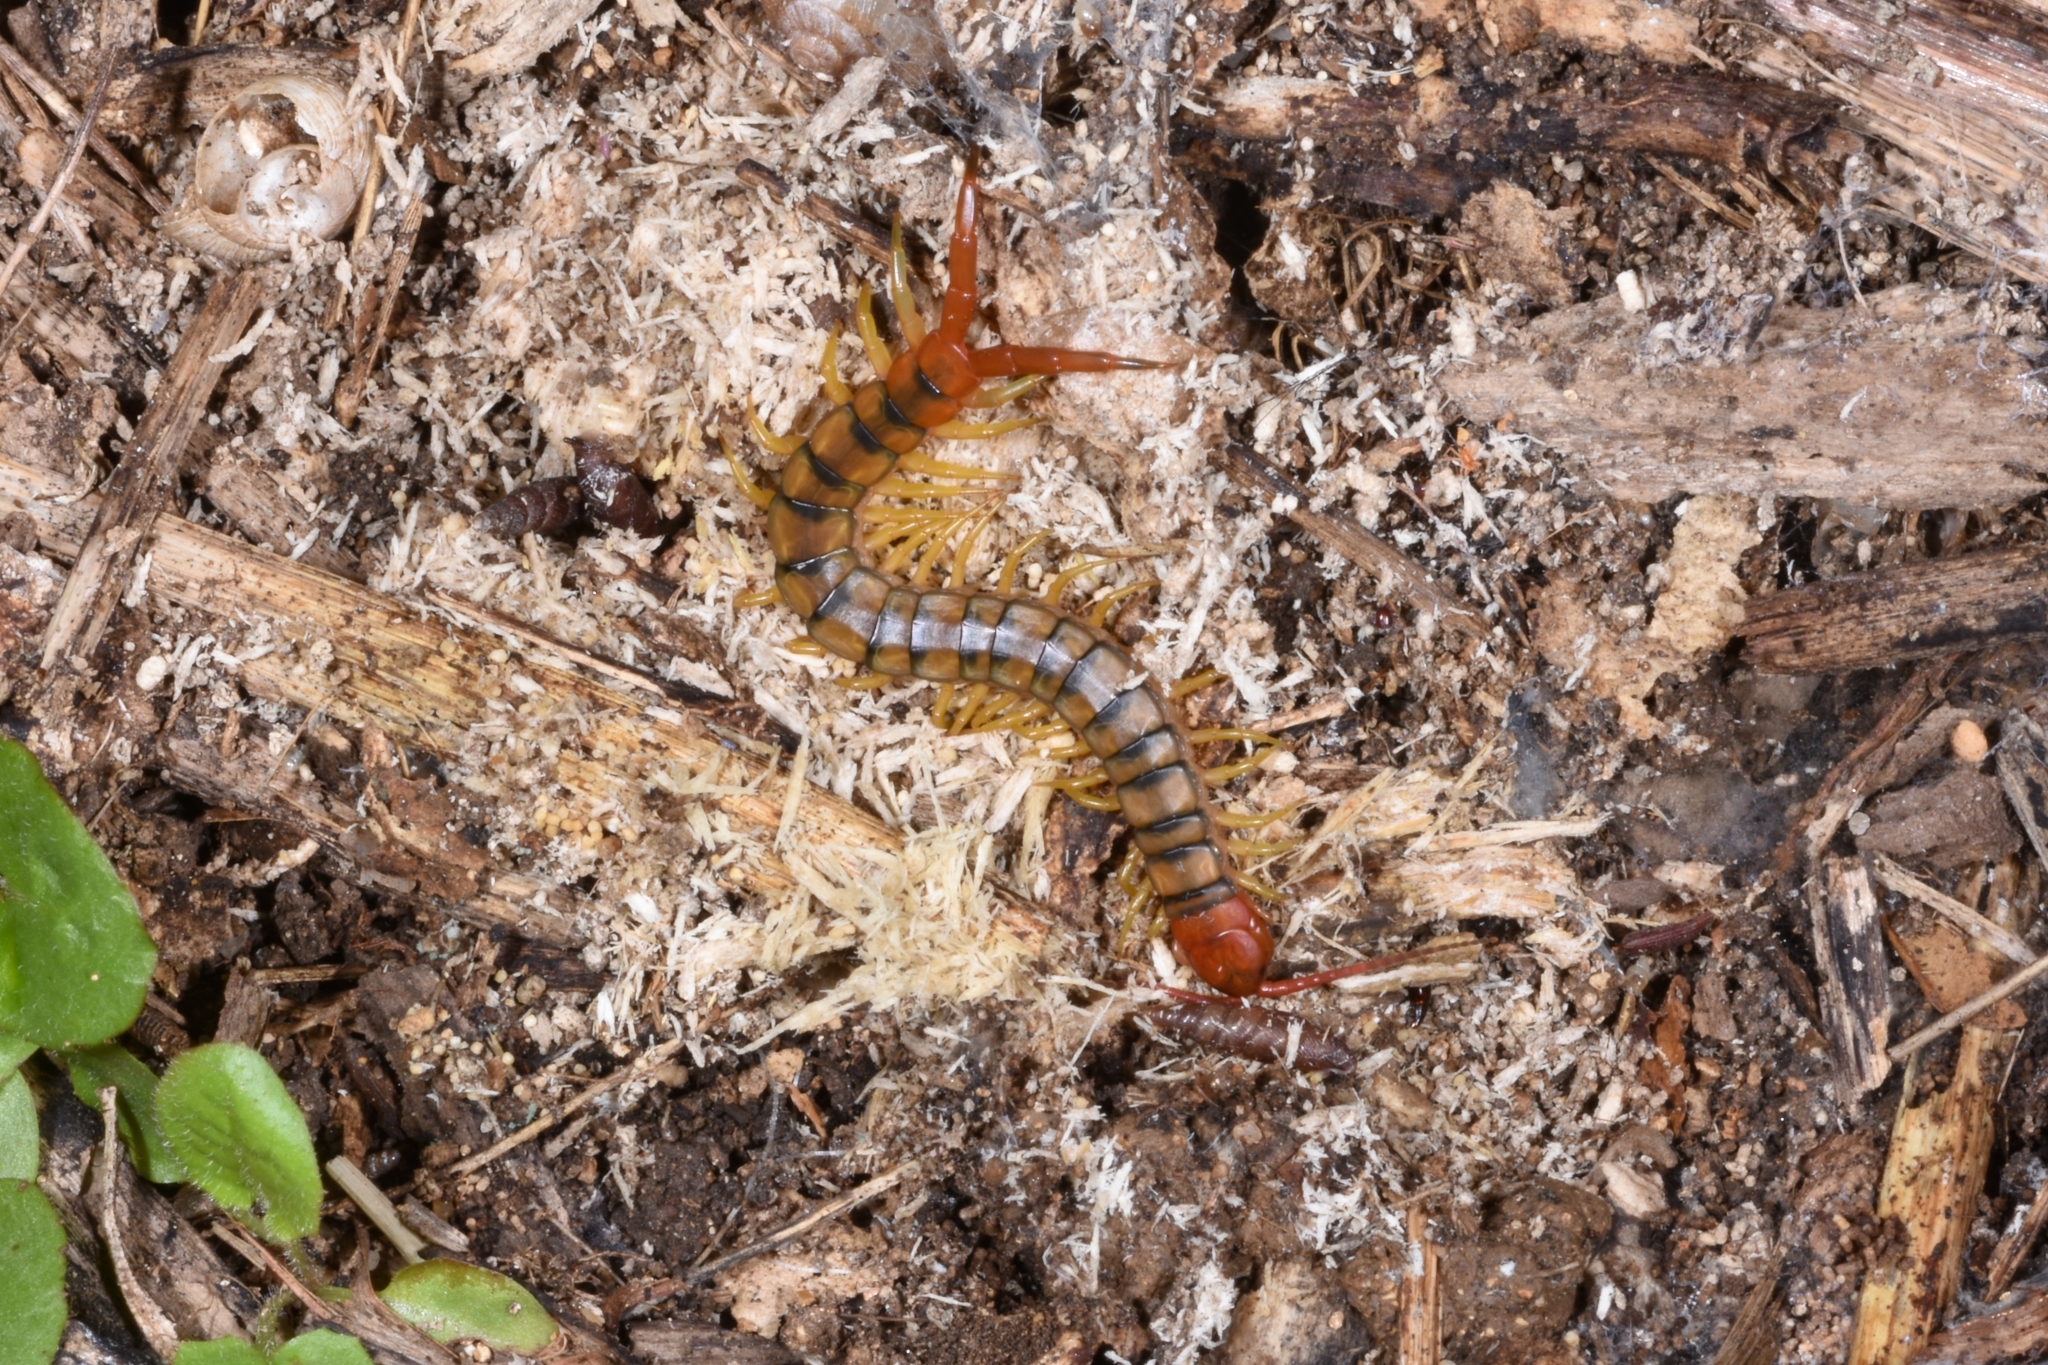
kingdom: Animalia
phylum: Arthropoda
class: Chilopoda
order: Scolopendromorpha
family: Scolopendridae
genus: Scolopendra
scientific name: Scolopendra morsitans
